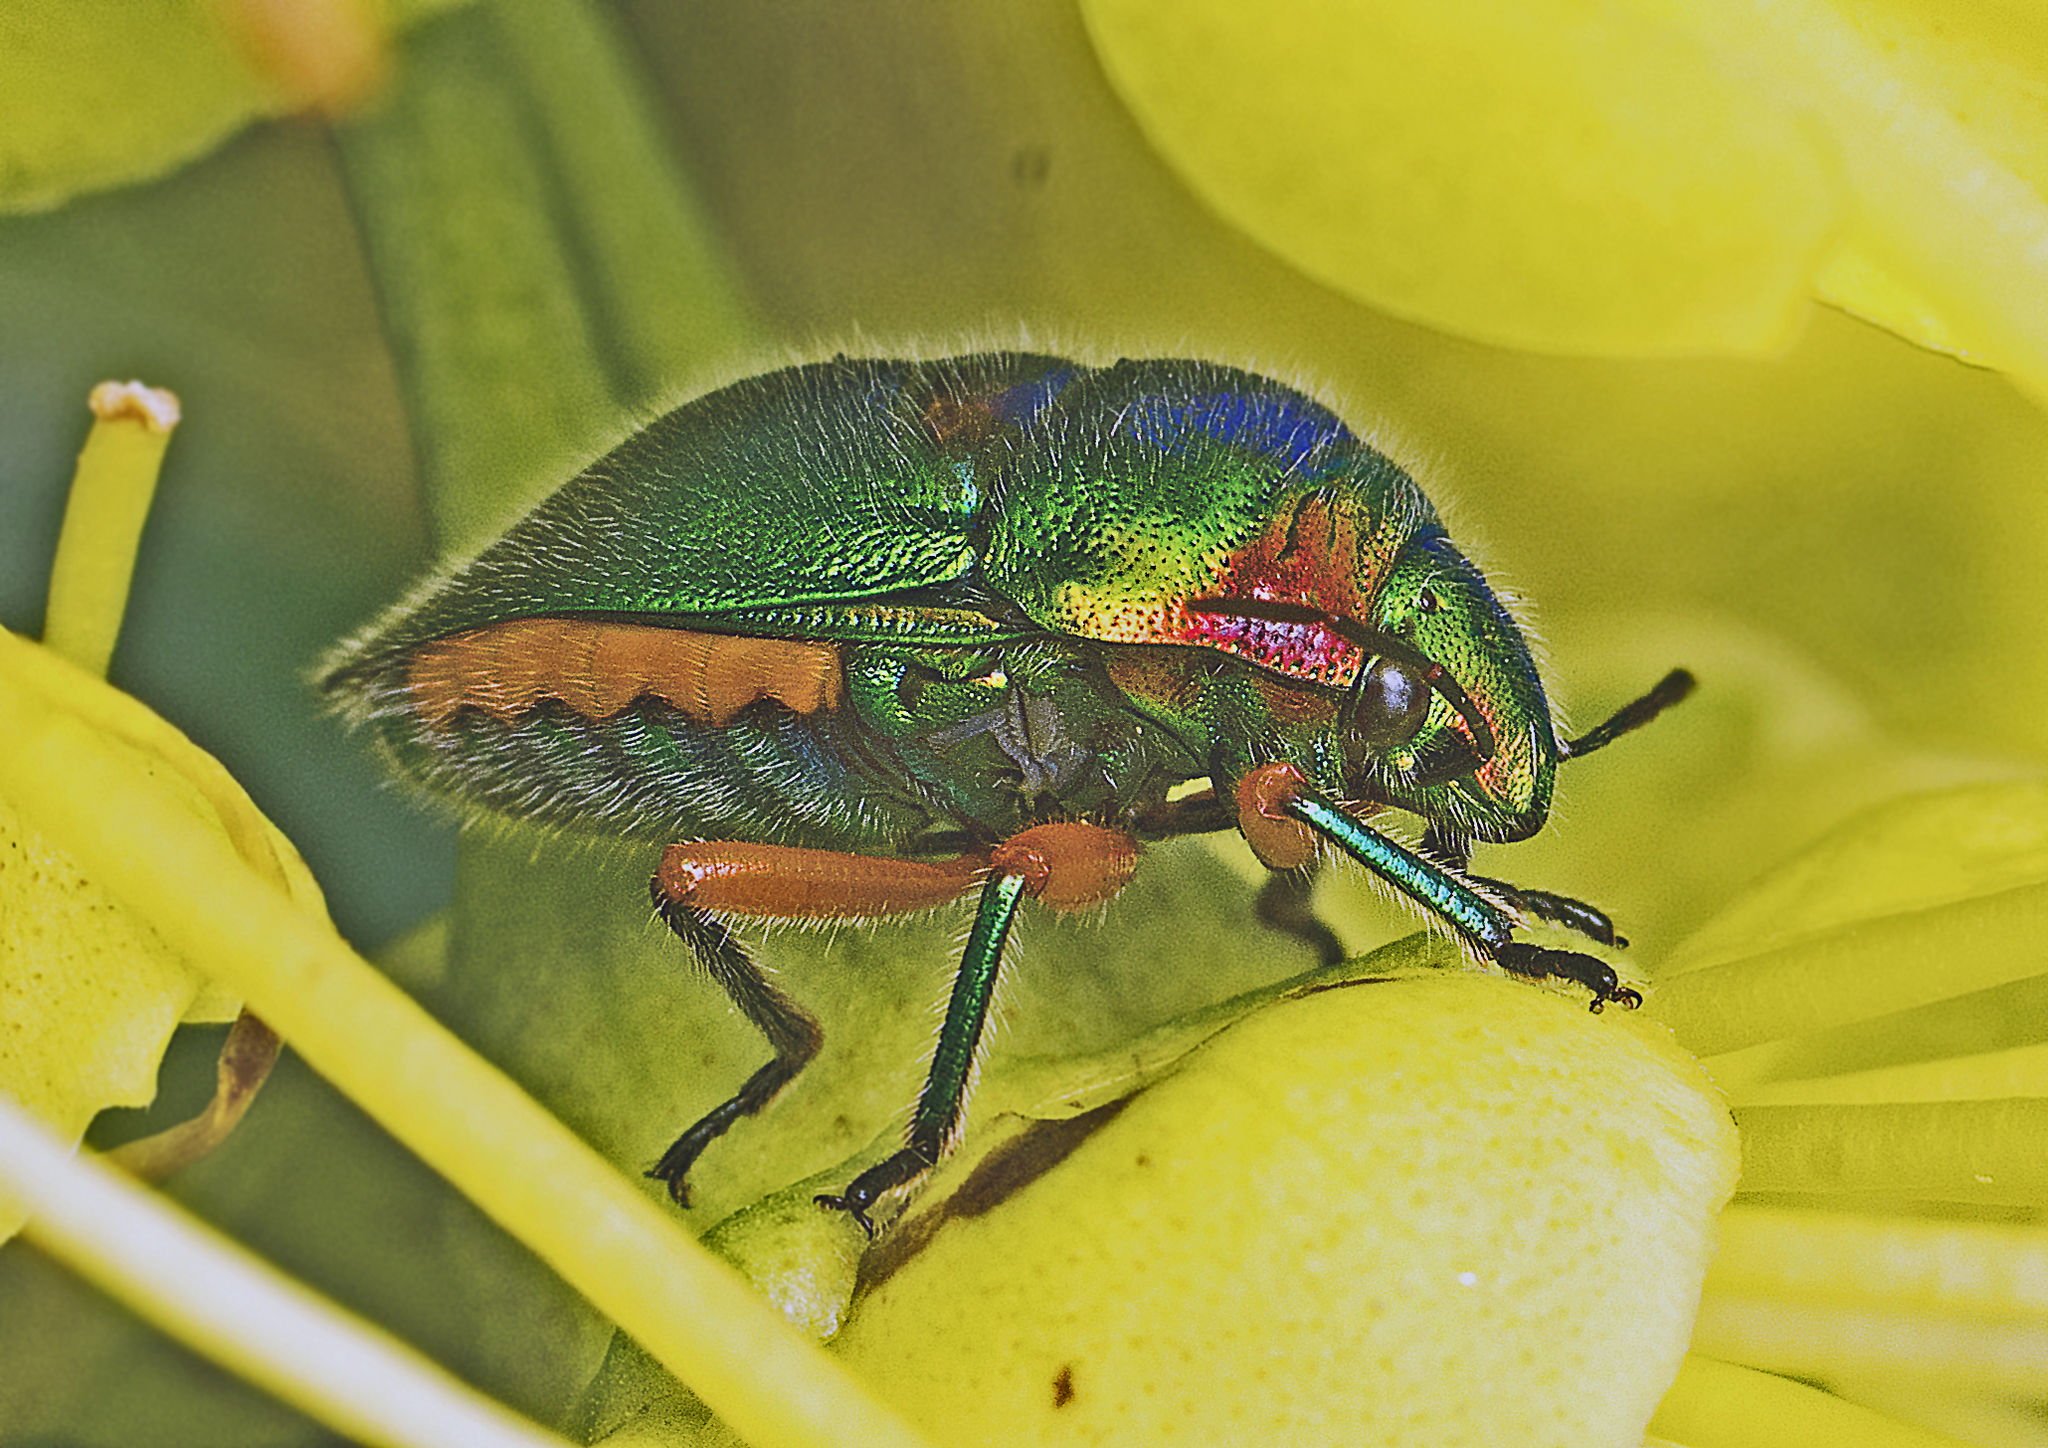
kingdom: Animalia
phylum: Arthropoda
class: Insecta
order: Hemiptera
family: Scutelleridae
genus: Lampromicra
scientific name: Lampromicra senator
